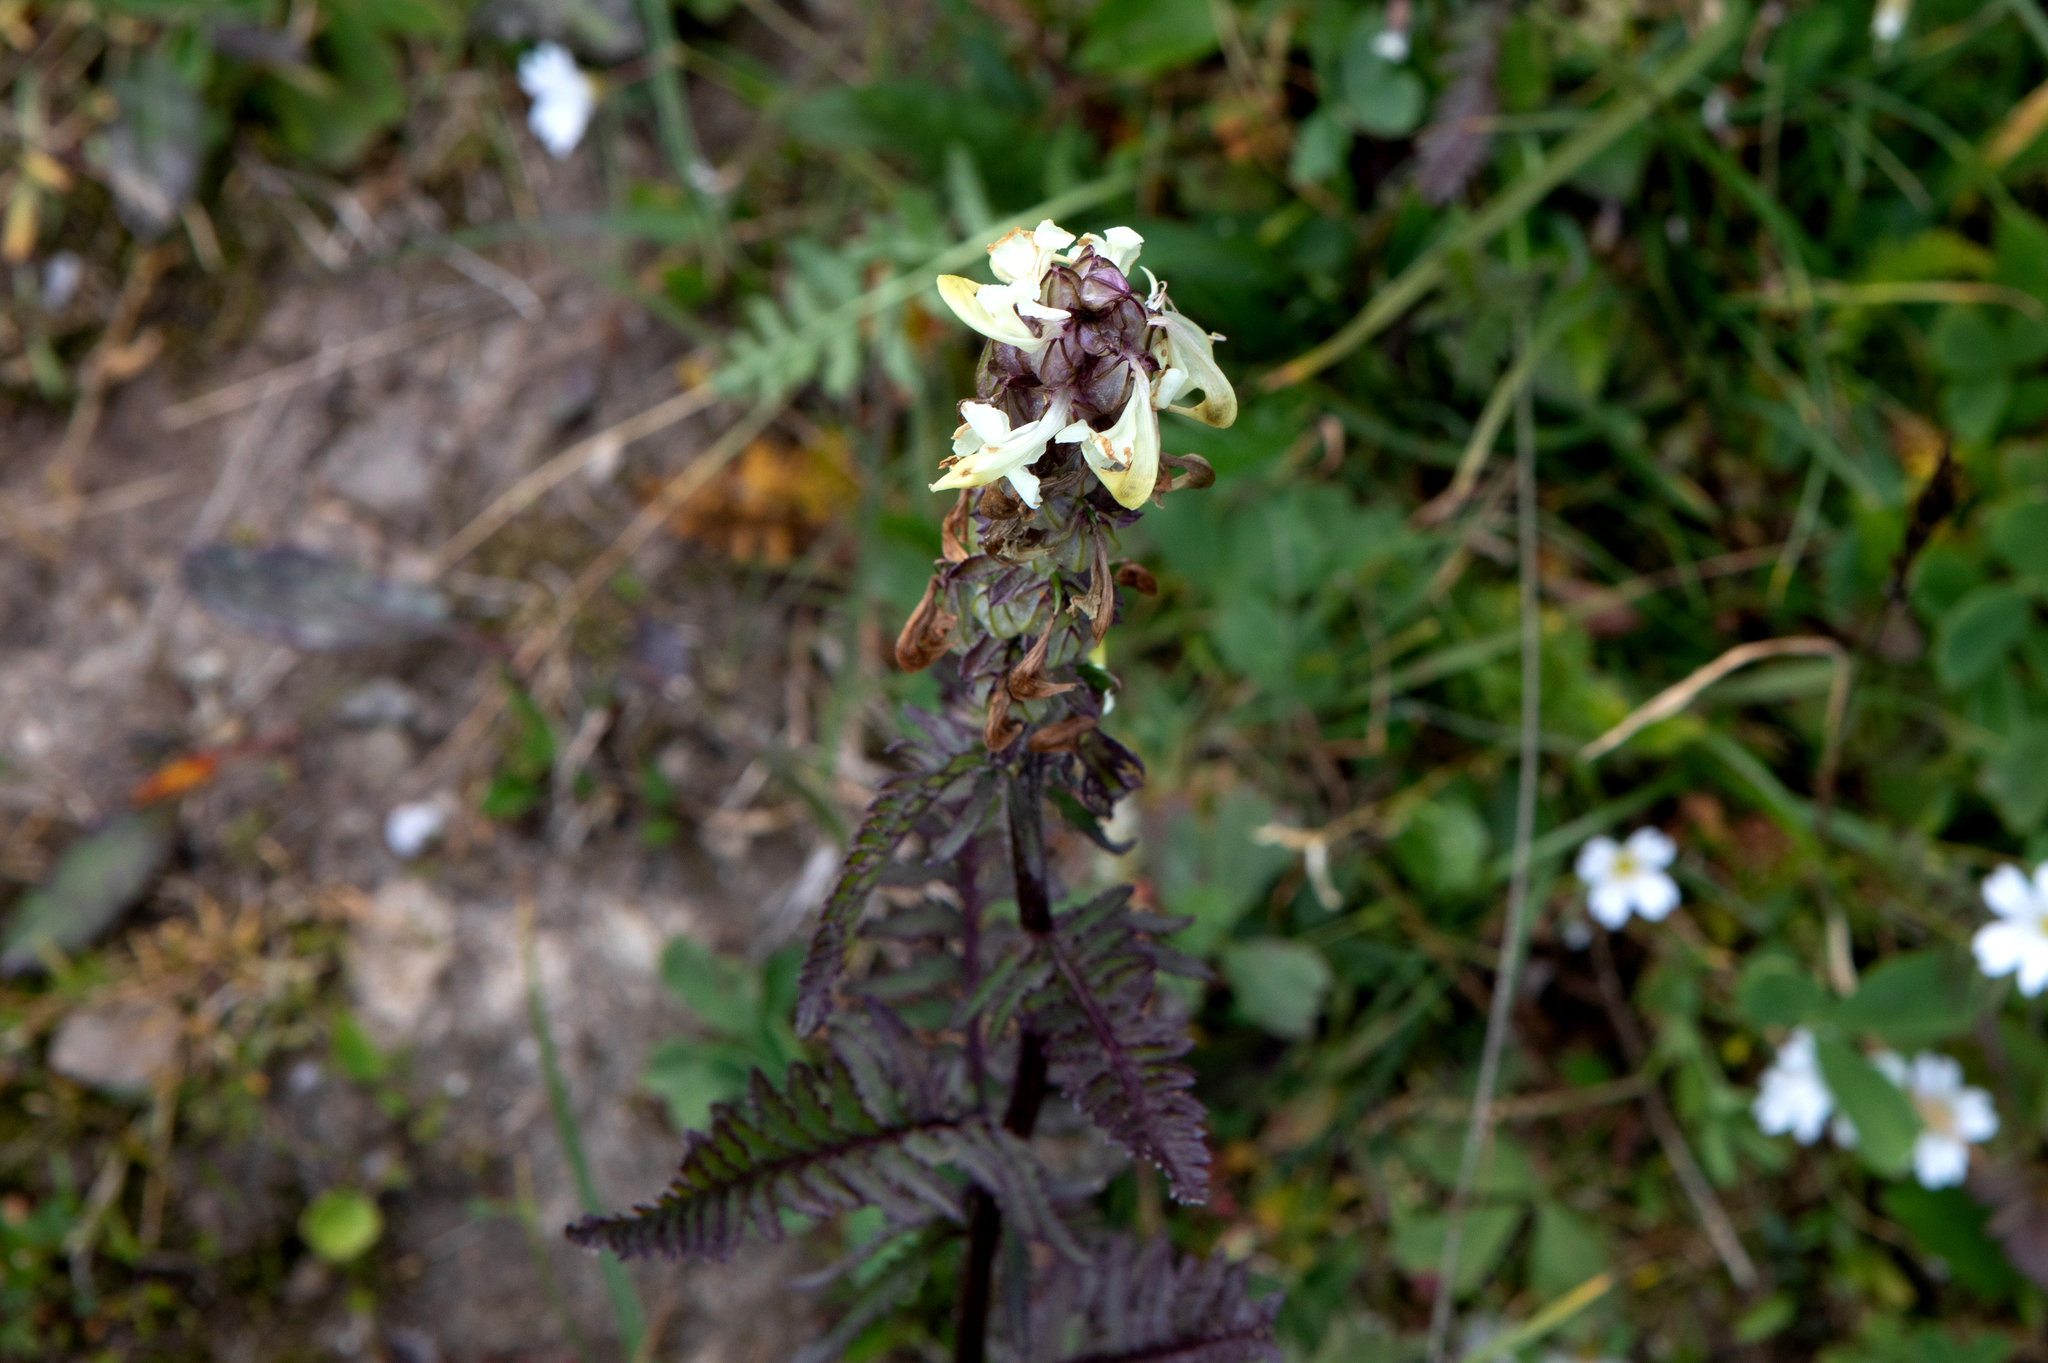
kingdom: Plantae
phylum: Tracheophyta
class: Magnoliopsida
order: Lamiales
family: Orobanchaceae
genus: Pedicularis
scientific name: Pedicularis compacta
